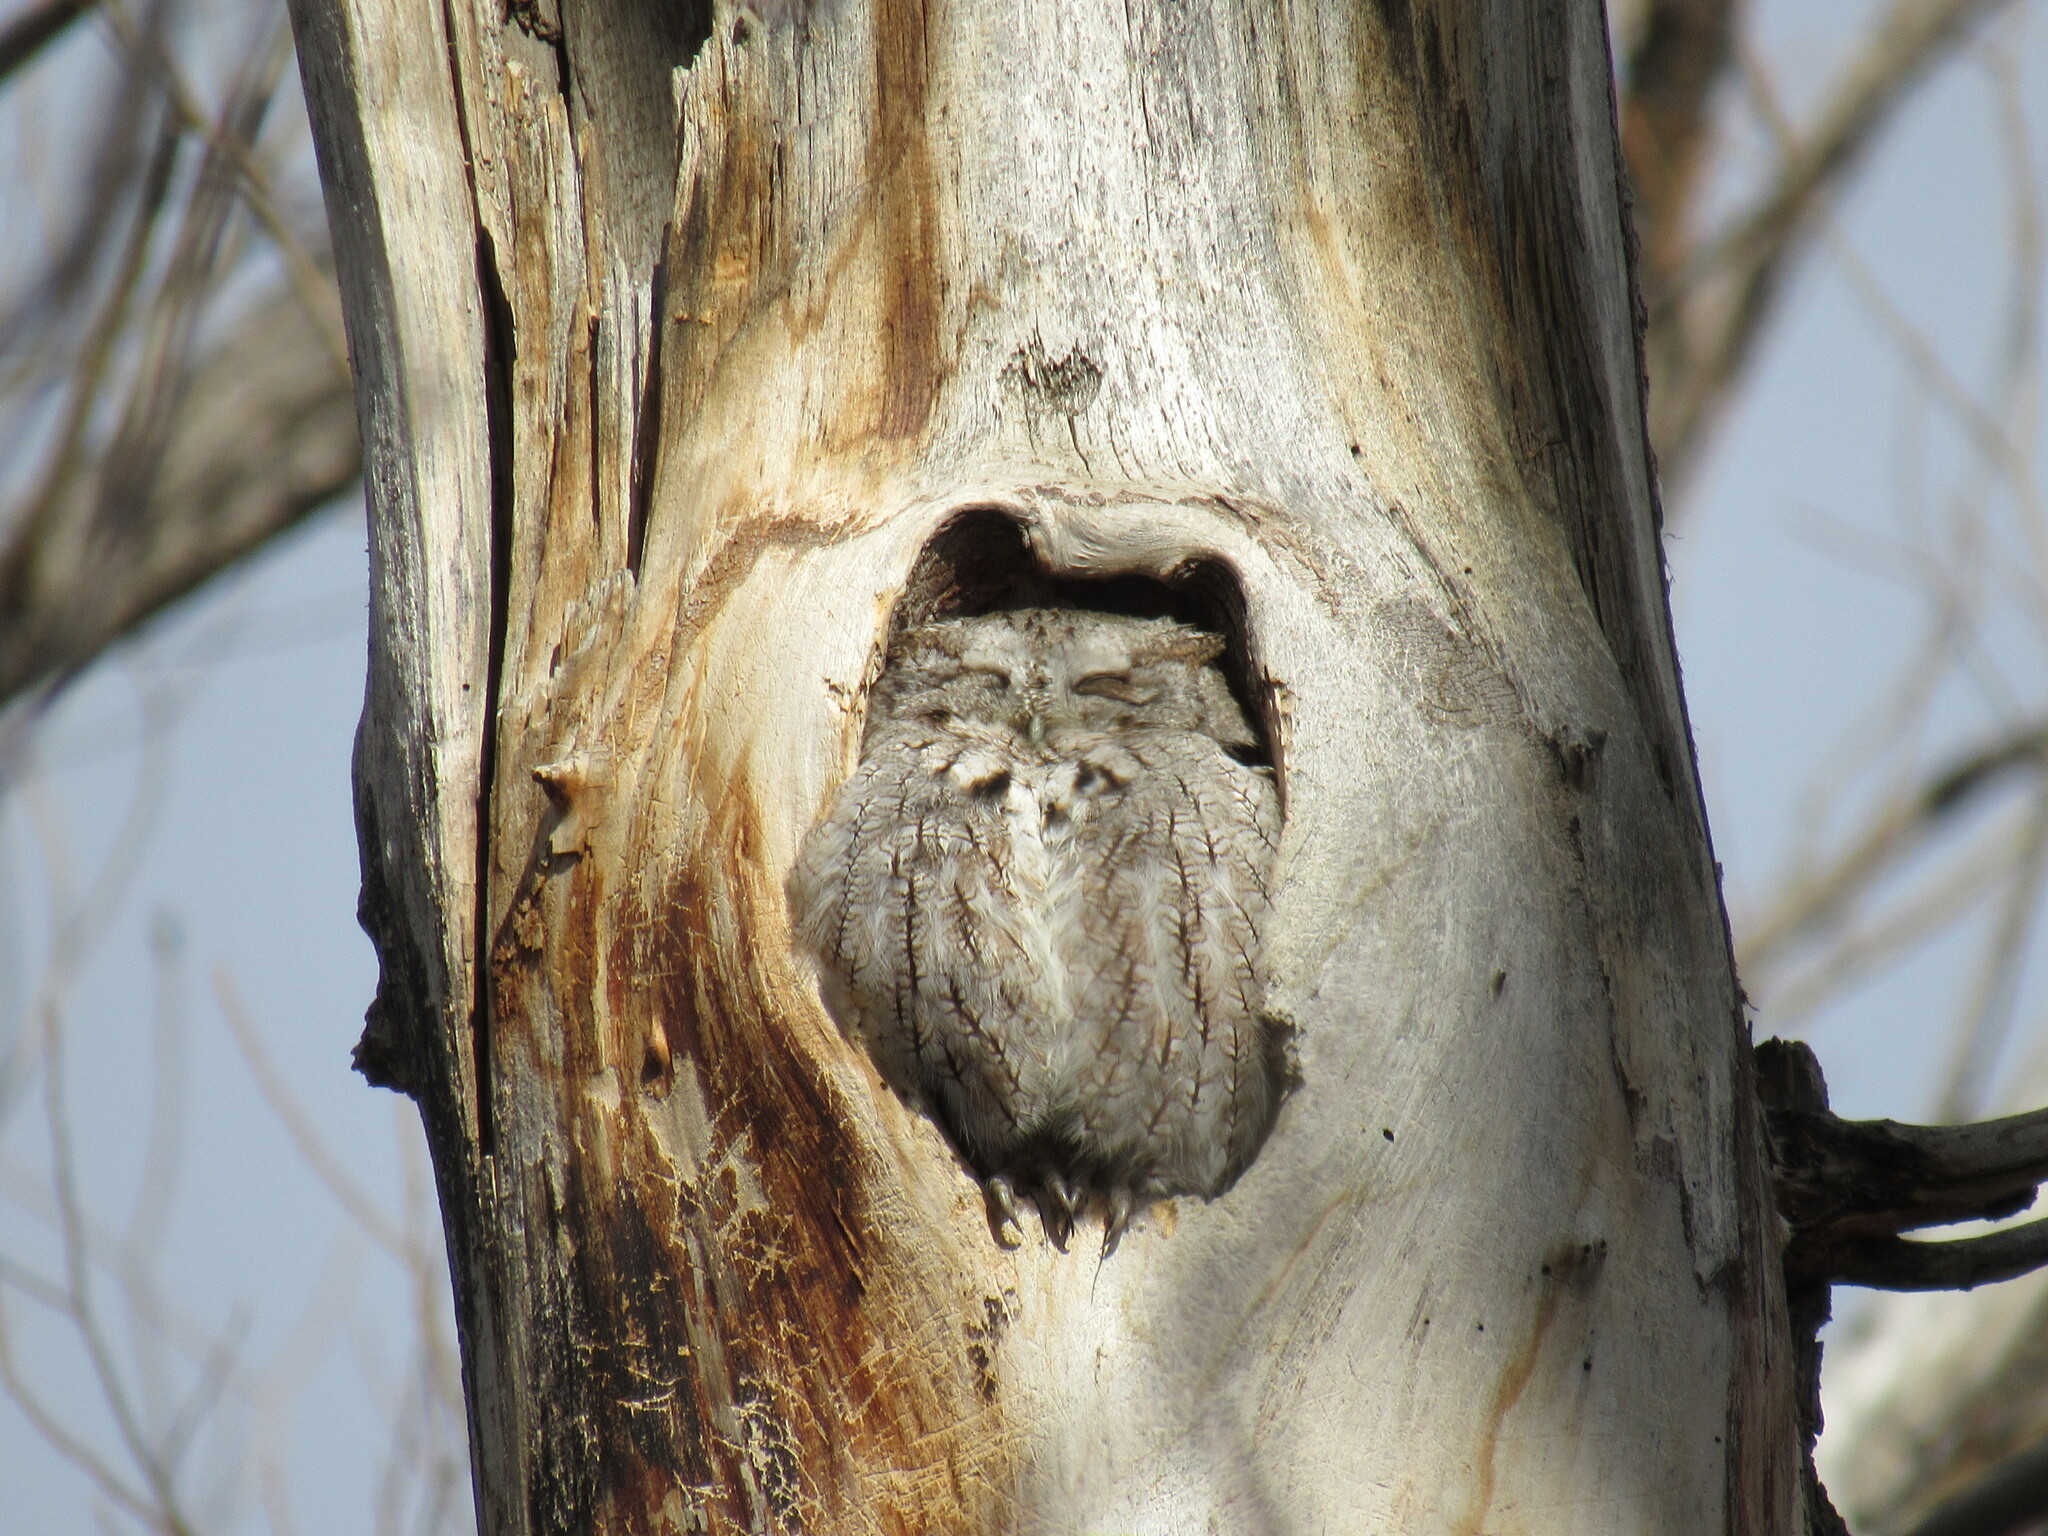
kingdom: Animalia
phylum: Chordata
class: Aves
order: Strigiformes
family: Strigidae
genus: Megascops
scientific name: Megascops asio
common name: Eastern screech-owl
